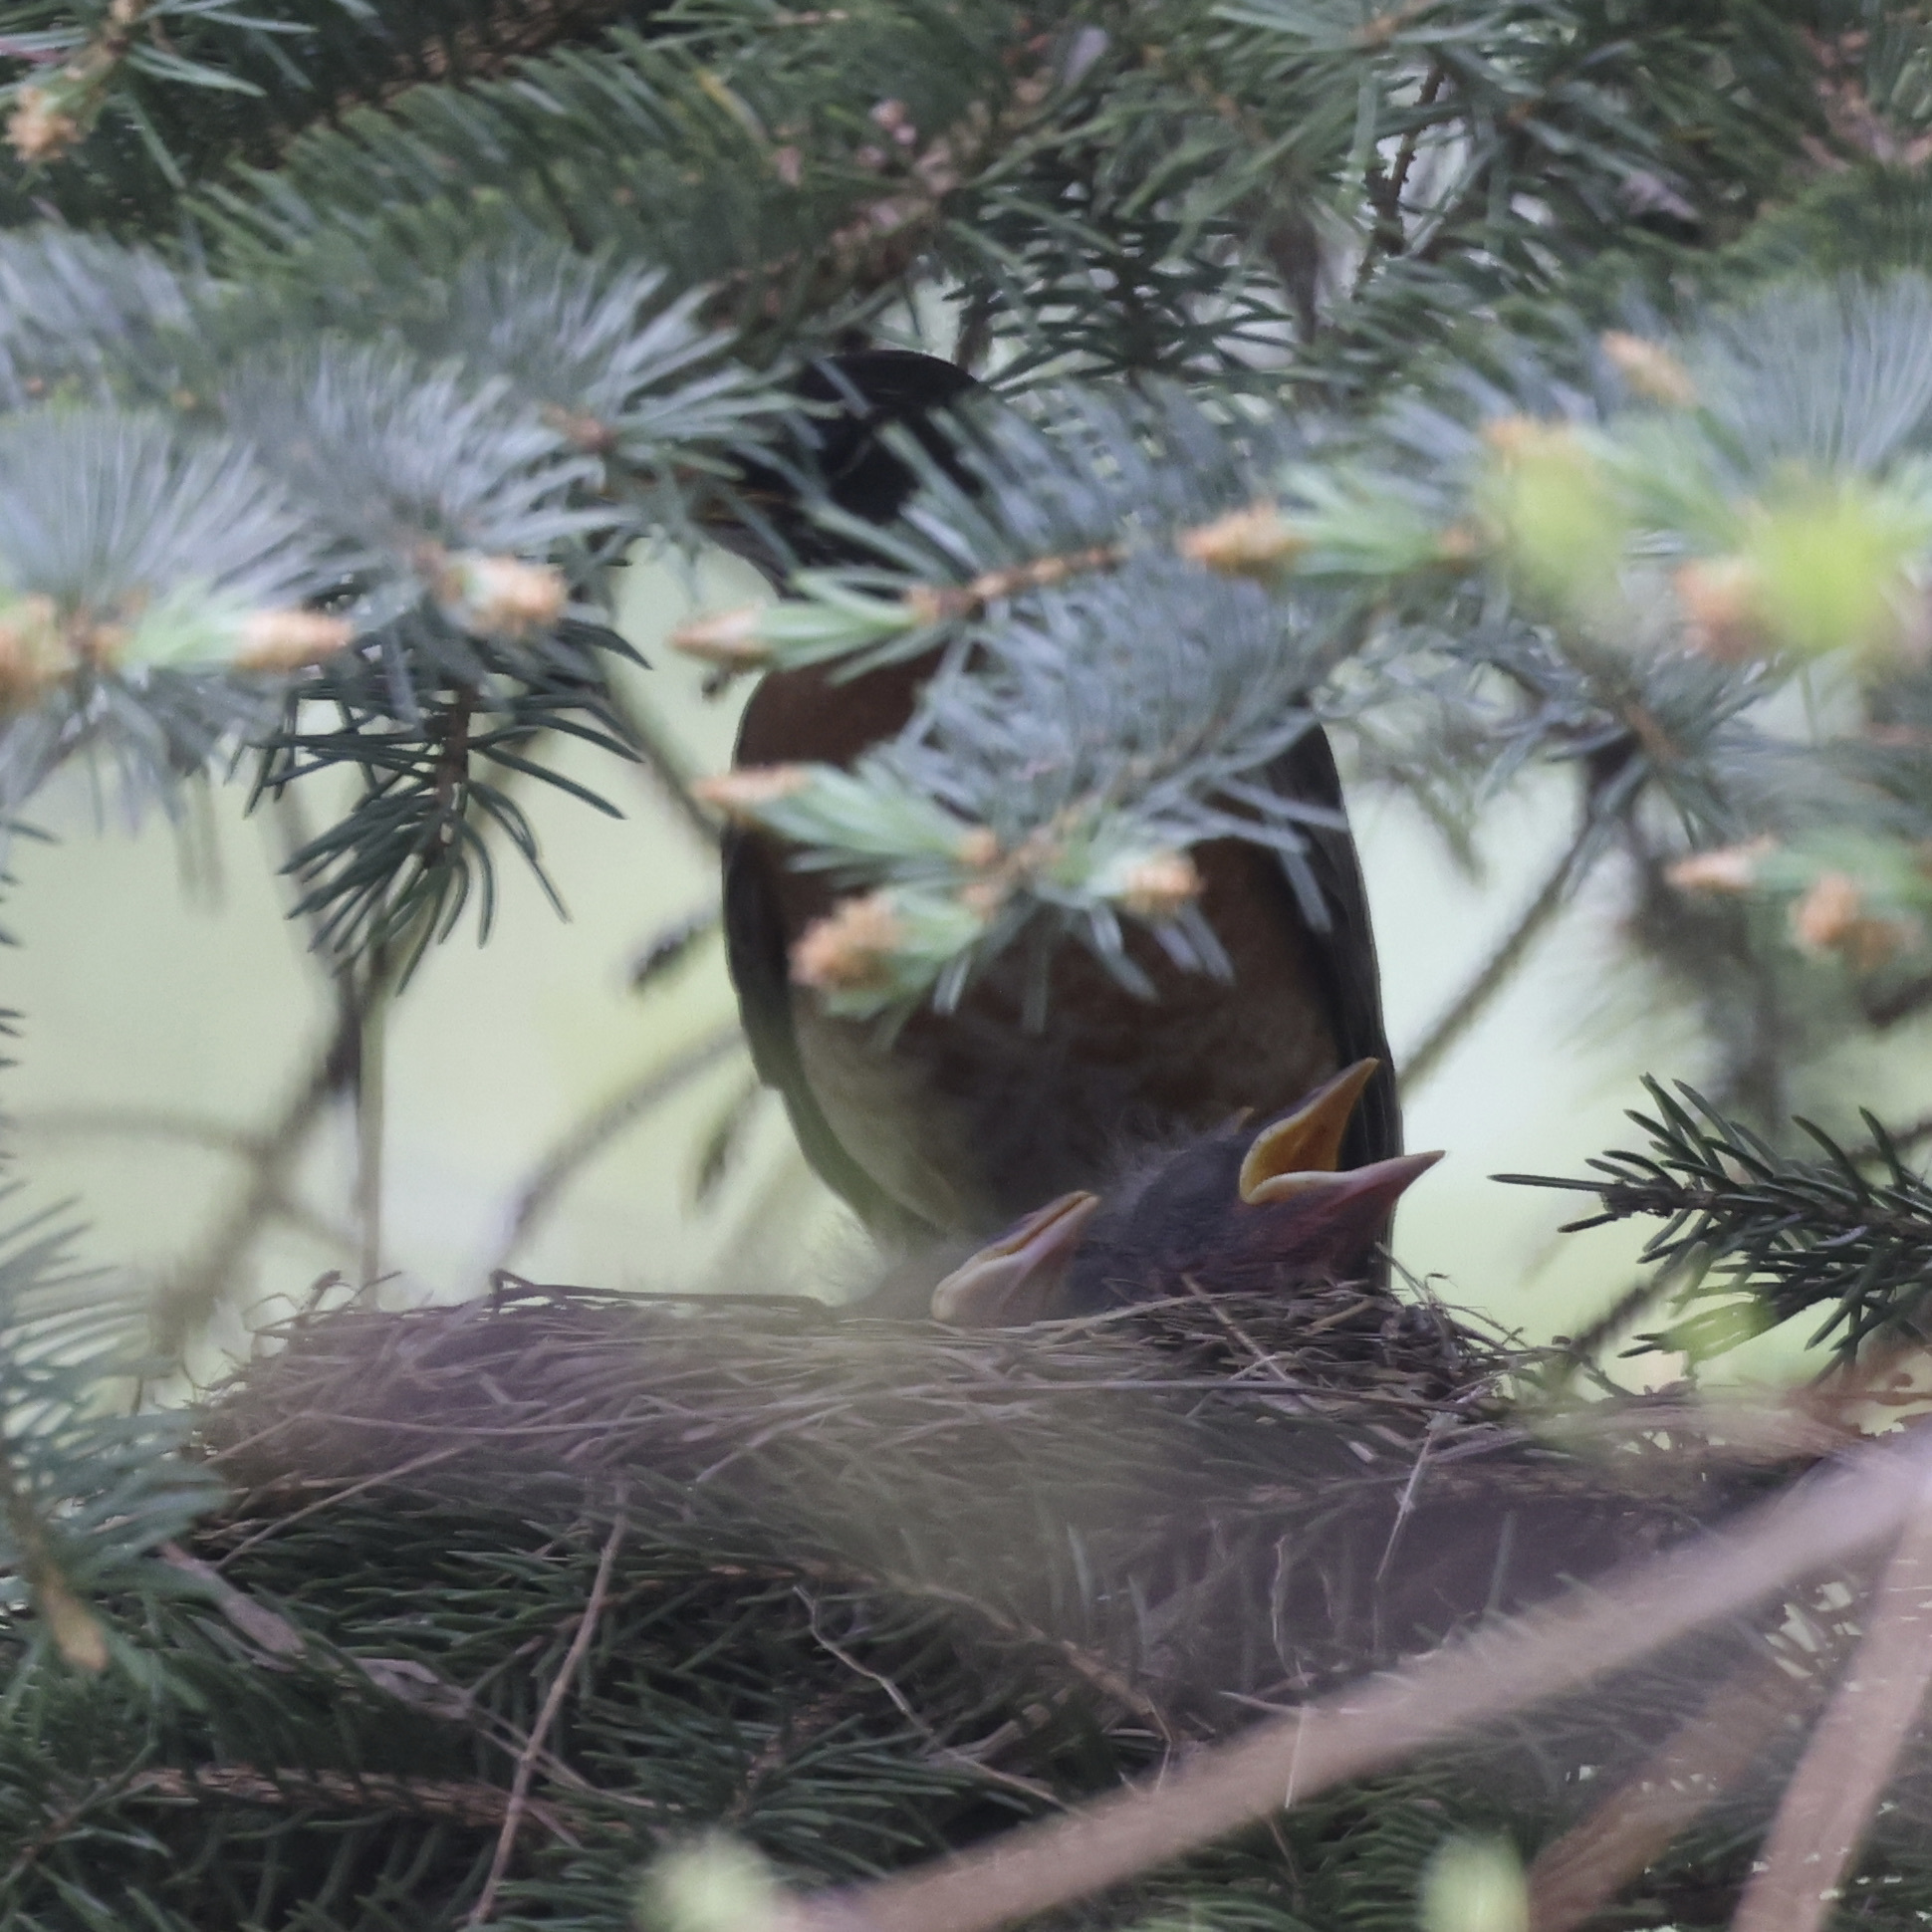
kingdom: Animalia
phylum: Chordata
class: Aves
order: Passeriformes
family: Turdidae
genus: Turdus
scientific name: Turdus migratorius
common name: American robin
